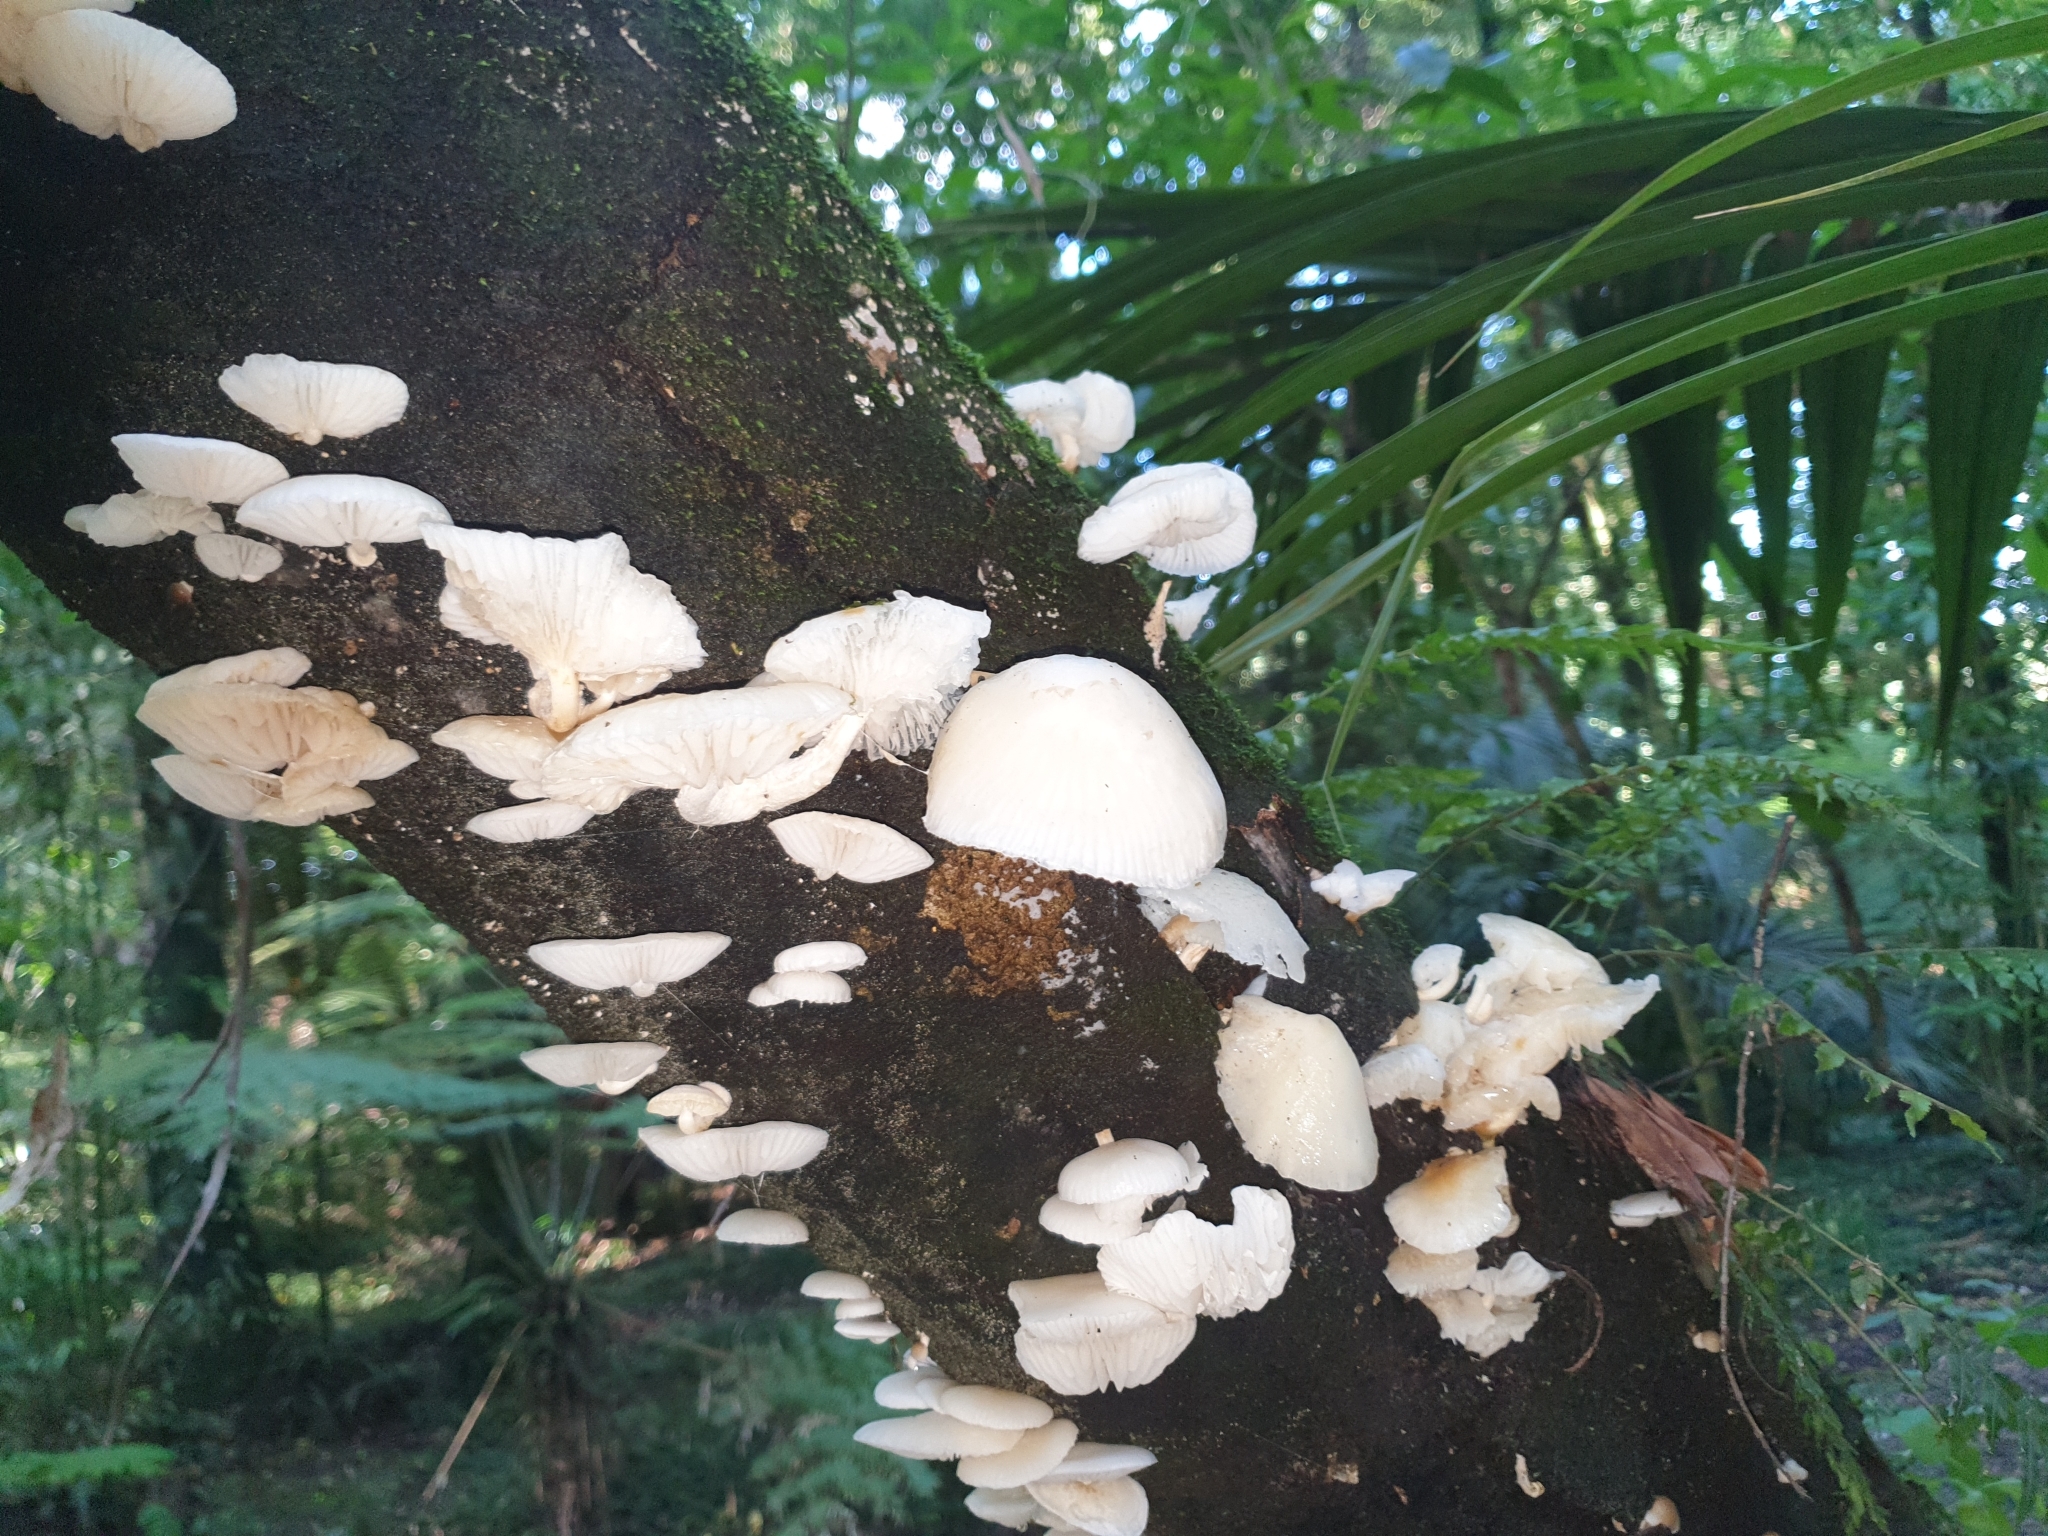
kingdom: Fungi
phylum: Basidiomycota
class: Agaricomycetes
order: Agaricales
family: Physalacriaceae
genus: Oudemansiella
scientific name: Oudemansiella australis
